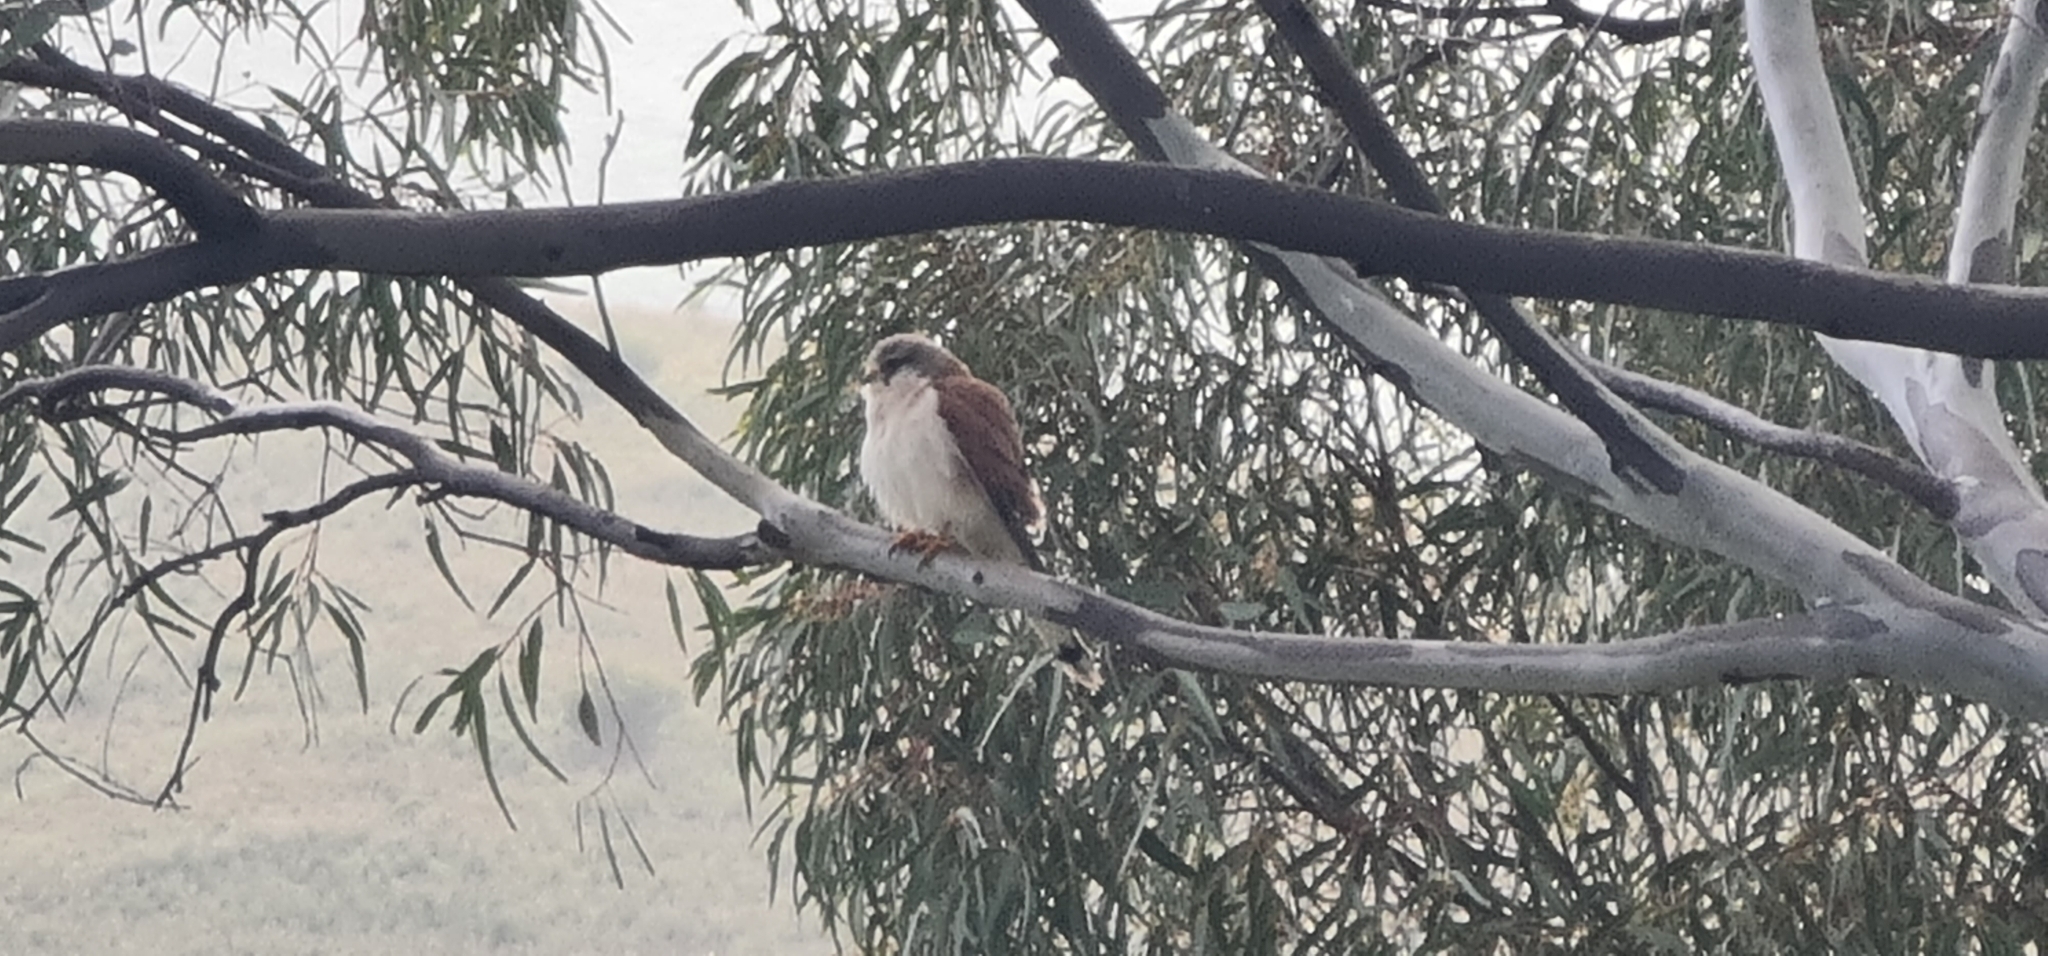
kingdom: Animalia
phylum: Chordata
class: Aves
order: Falconiformes
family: Falconidae
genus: Falco
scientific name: Falco cenchroides
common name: Nankeen kestrel
